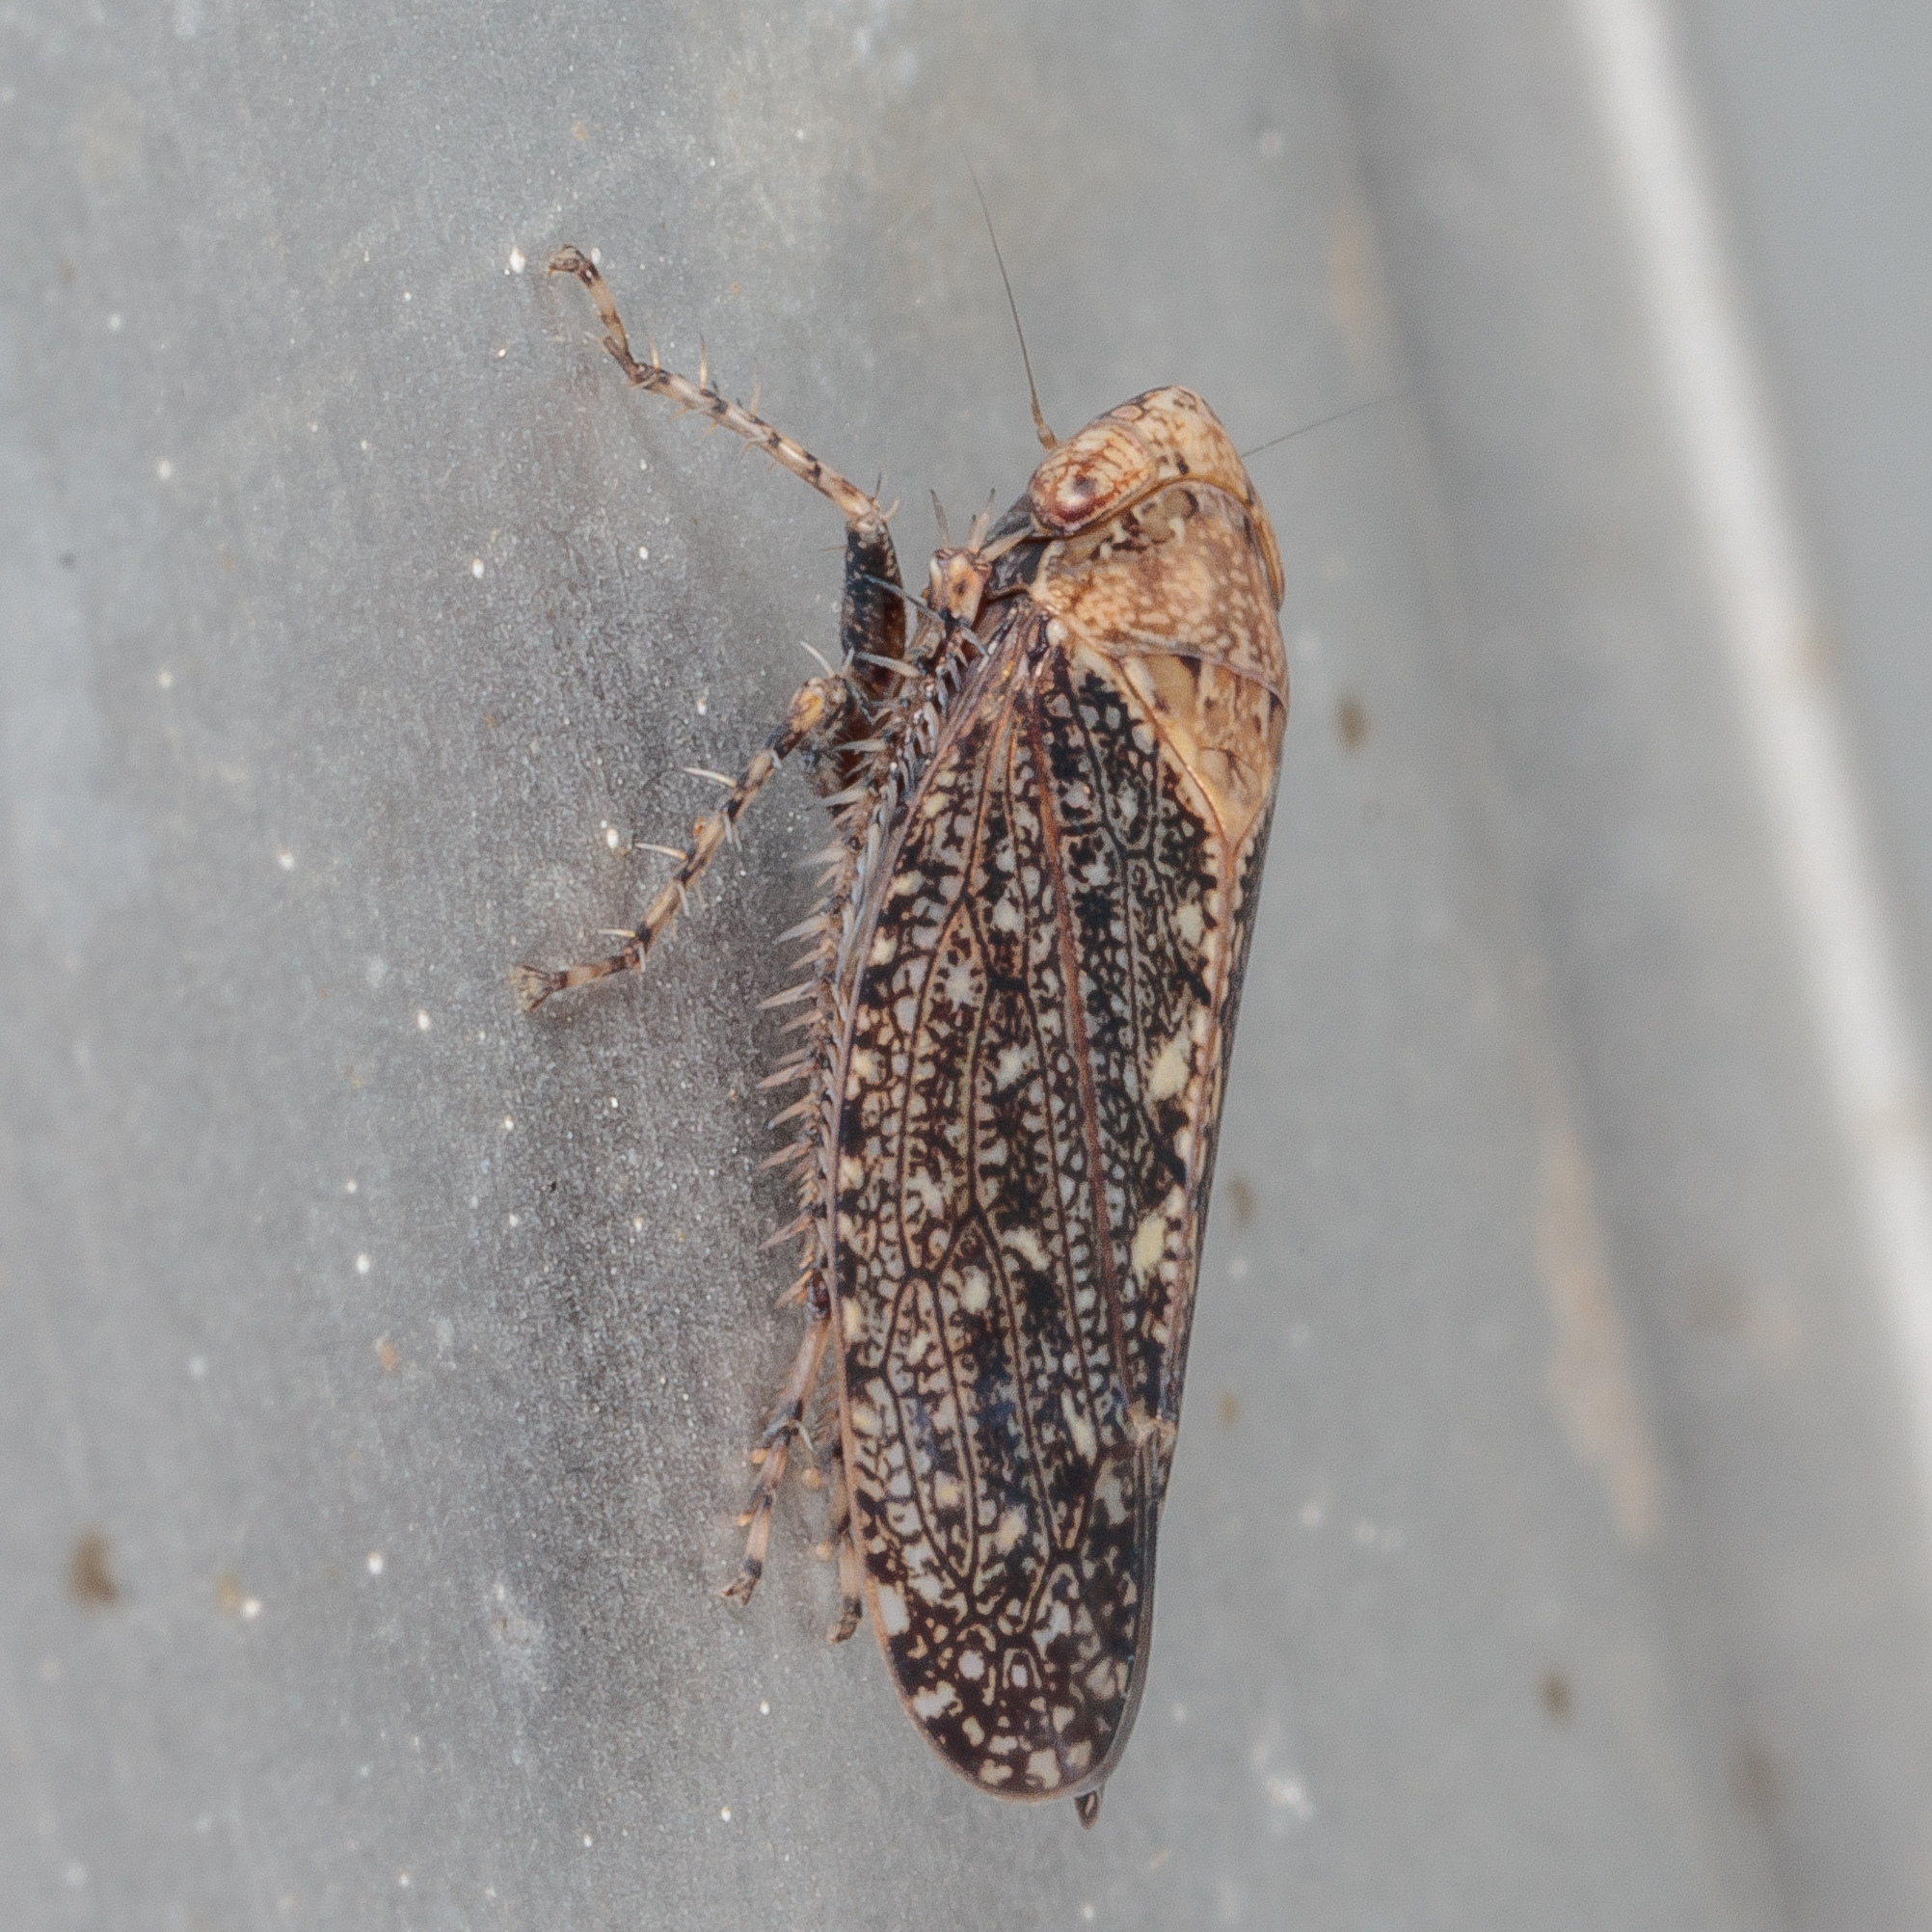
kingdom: Animalia
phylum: Arthropoda
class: Insecta
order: Hemiptera
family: Cicadellidae
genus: Excultanus
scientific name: Excultanus excultus
